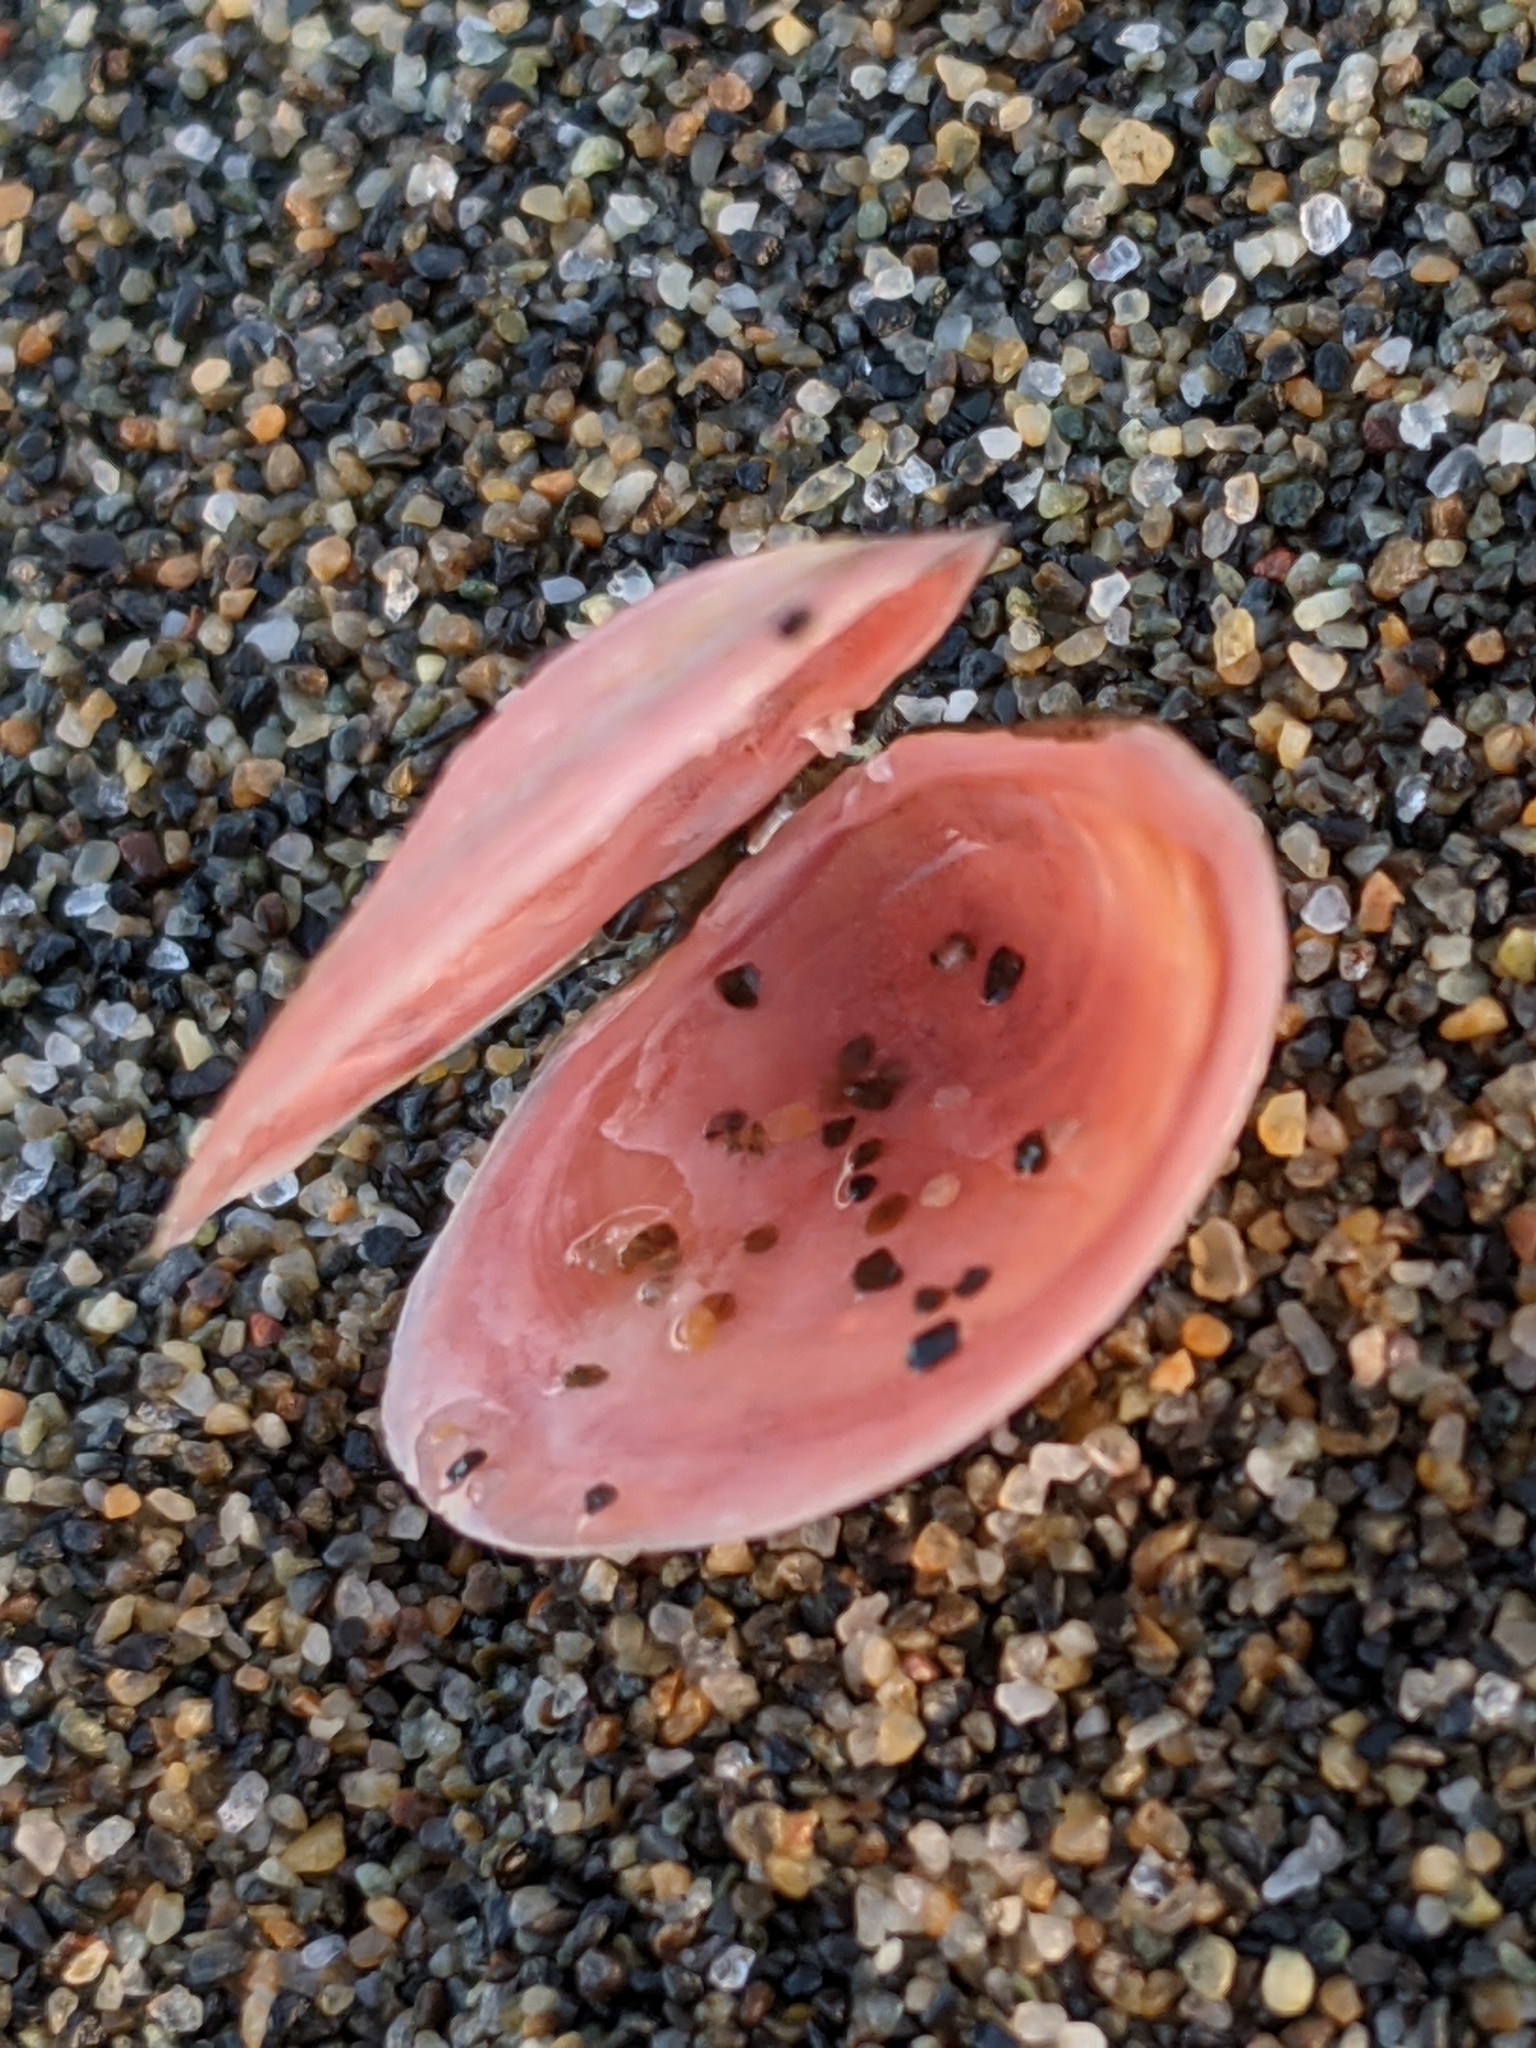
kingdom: Animalia
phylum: Mollusca
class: Bivalvia
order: Cardiida
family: Tellinidae
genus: Macoma
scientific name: Macoma balthica
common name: Baltic tellin
